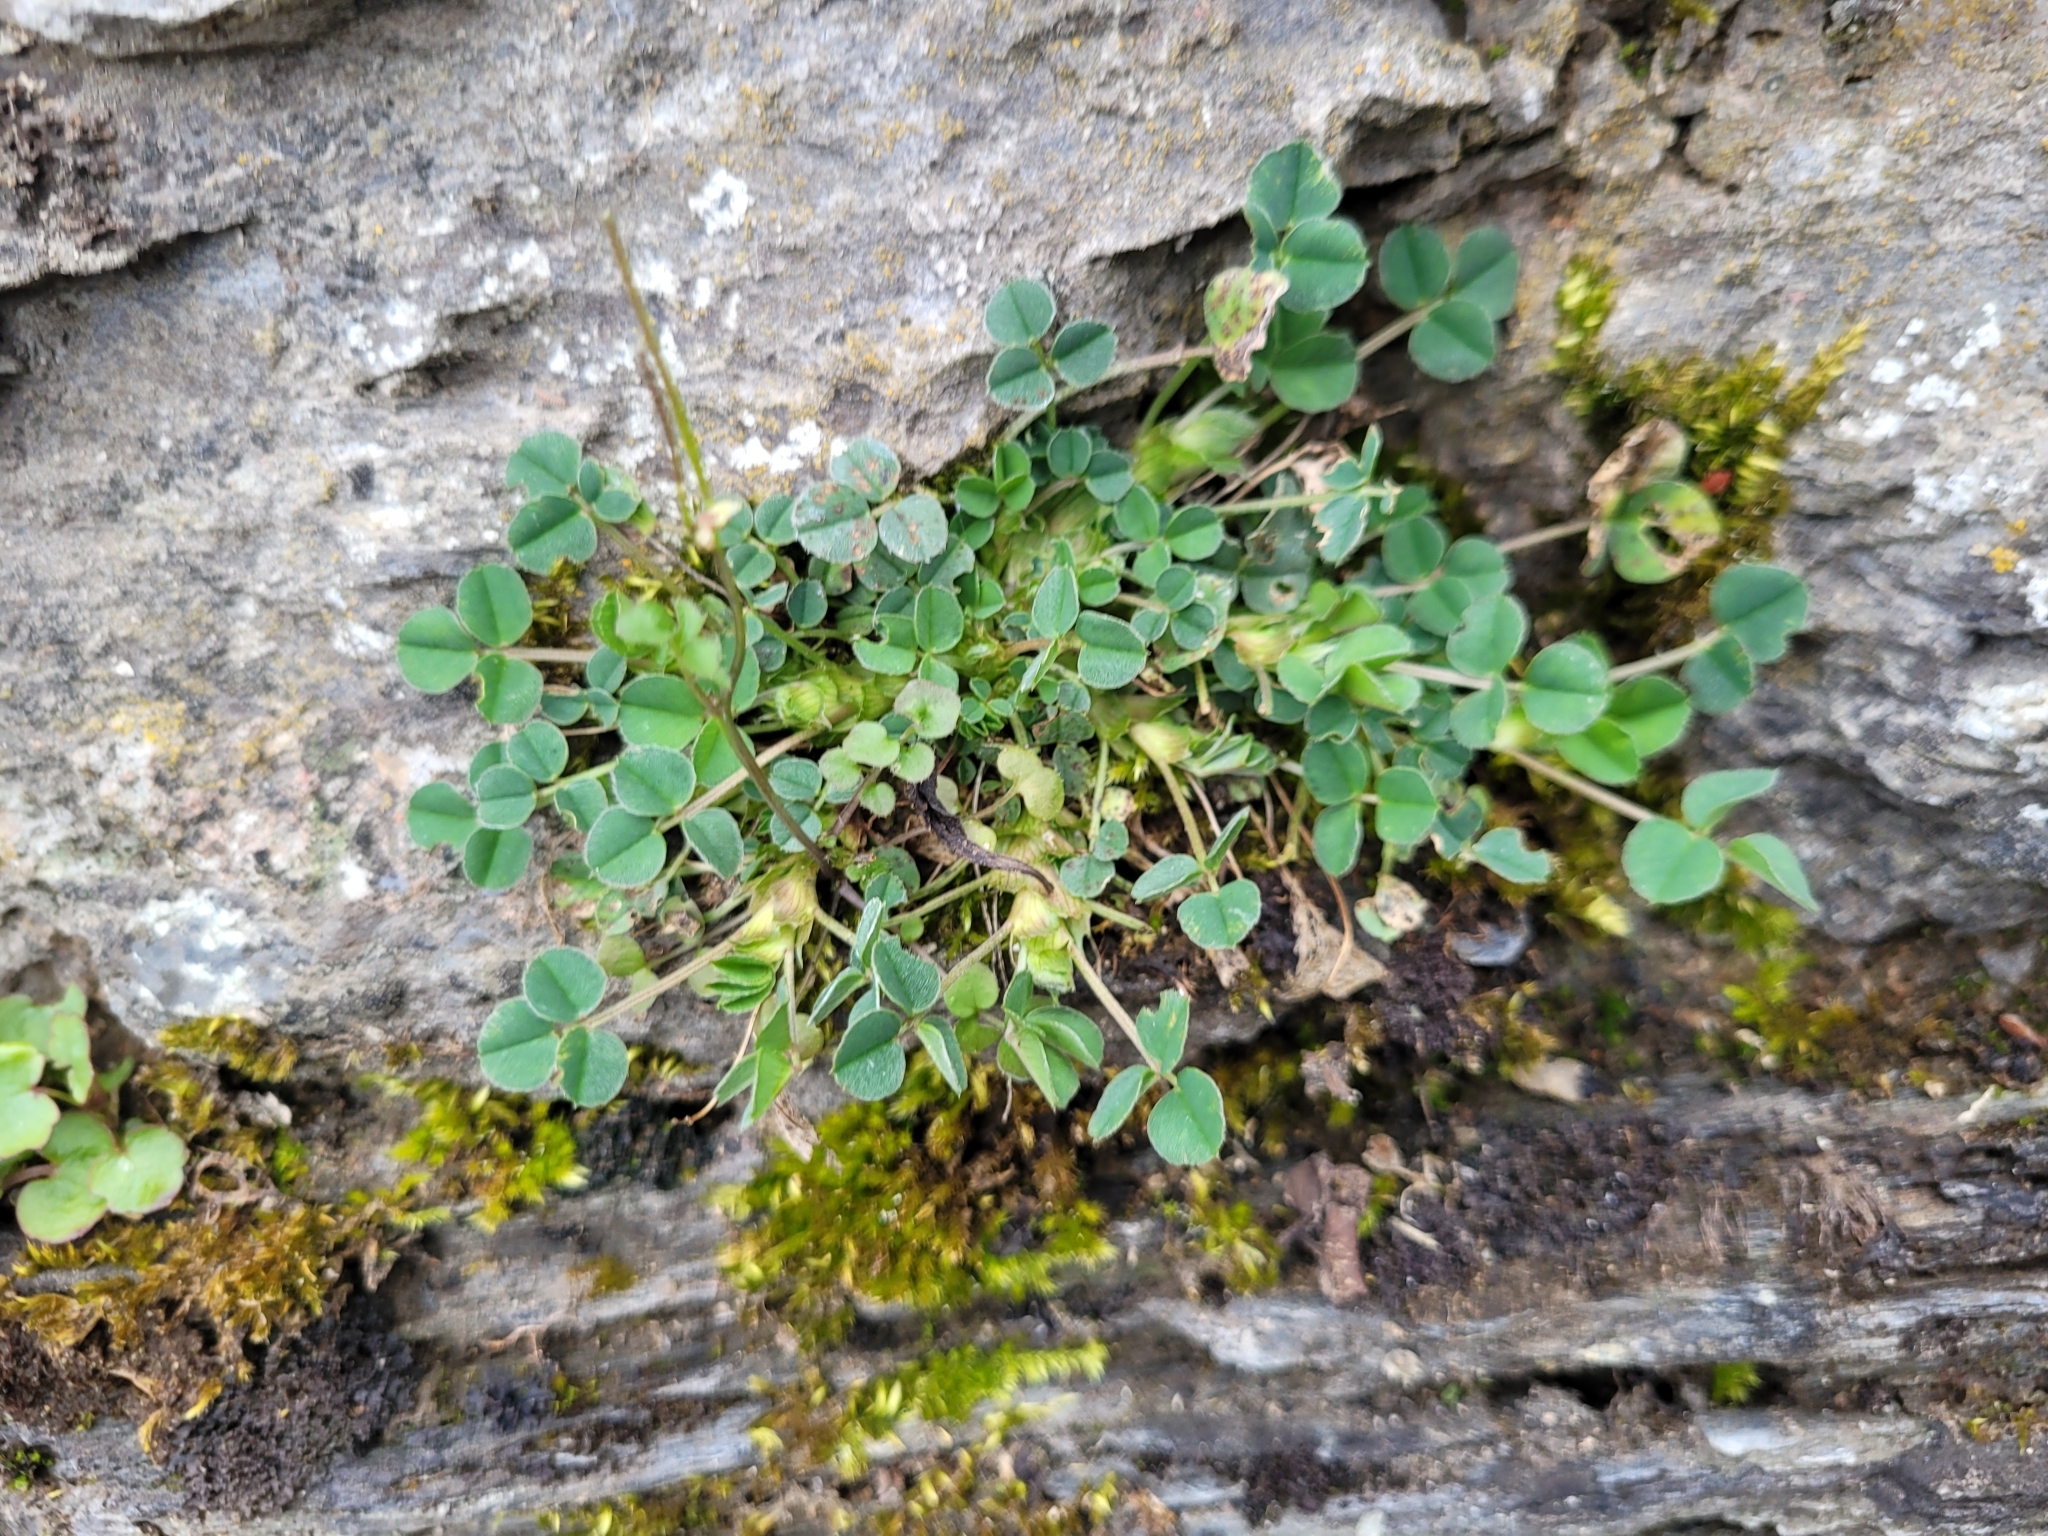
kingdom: Plantae
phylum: Tracheophyta
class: Magnoliopsida
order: Fabales
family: Fabaceae
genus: Medicago
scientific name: Medicago lupulina
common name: Black medick
